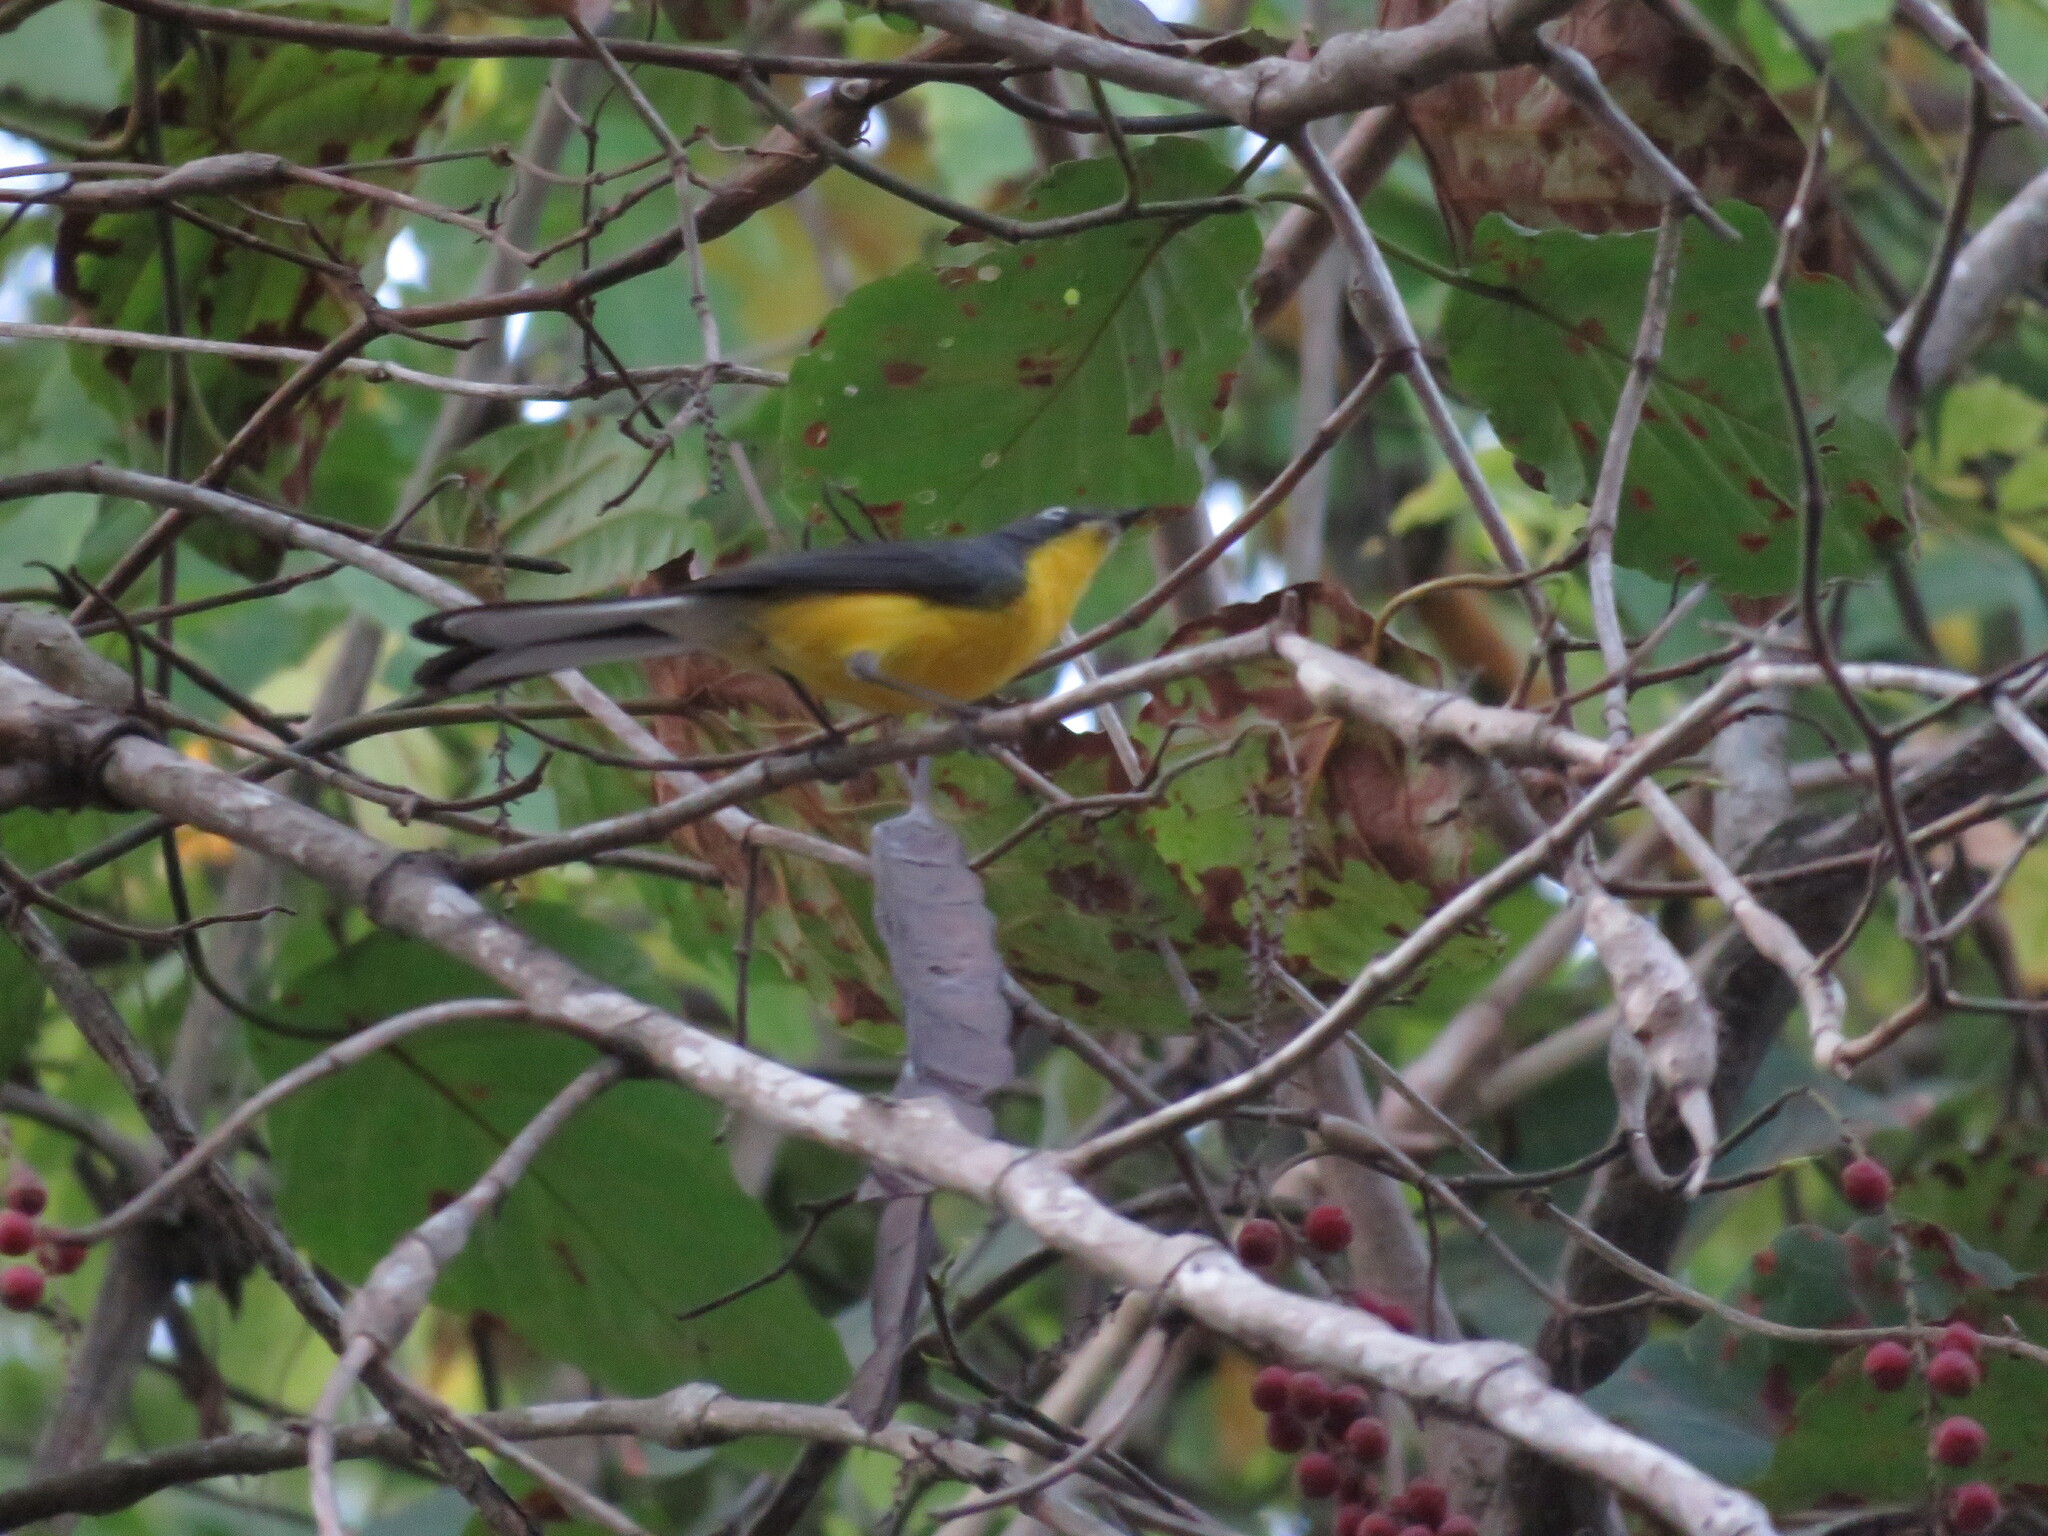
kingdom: Animalia
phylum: Chordata
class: Aves
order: Passeriformes
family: Parulidae
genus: Myioborus
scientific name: Myioborus brunniceps
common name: Brown-capped whitestart
